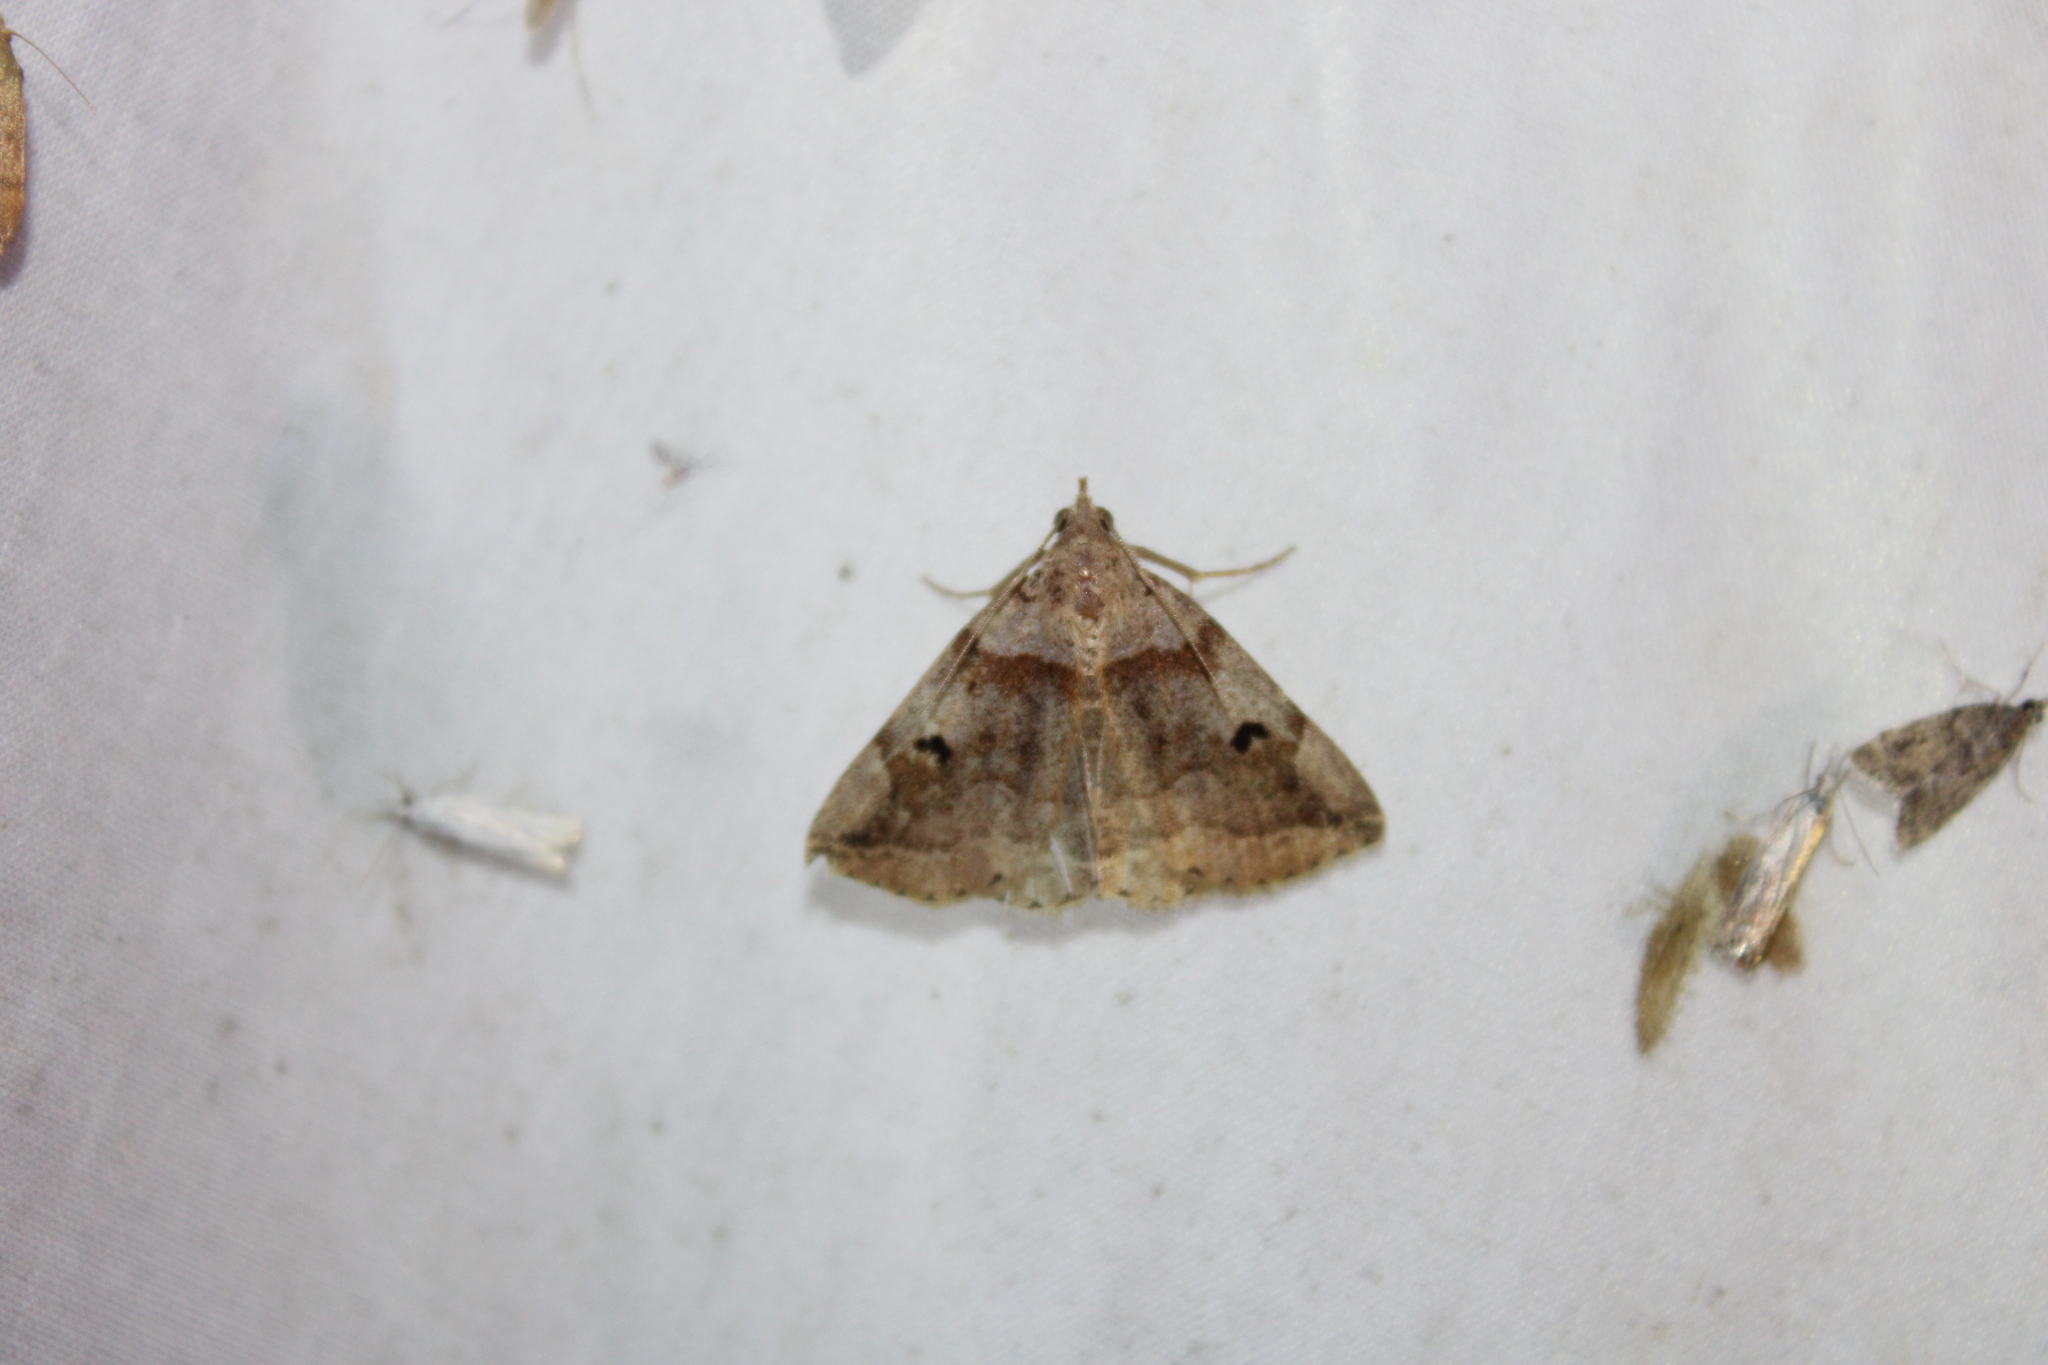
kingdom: Animalia
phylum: Arthropoda
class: Insecta
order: Lepidoptera
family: Erebidae
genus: Zanclognatha
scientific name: Zanclognatha laevigata
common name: Variable fan-foot
